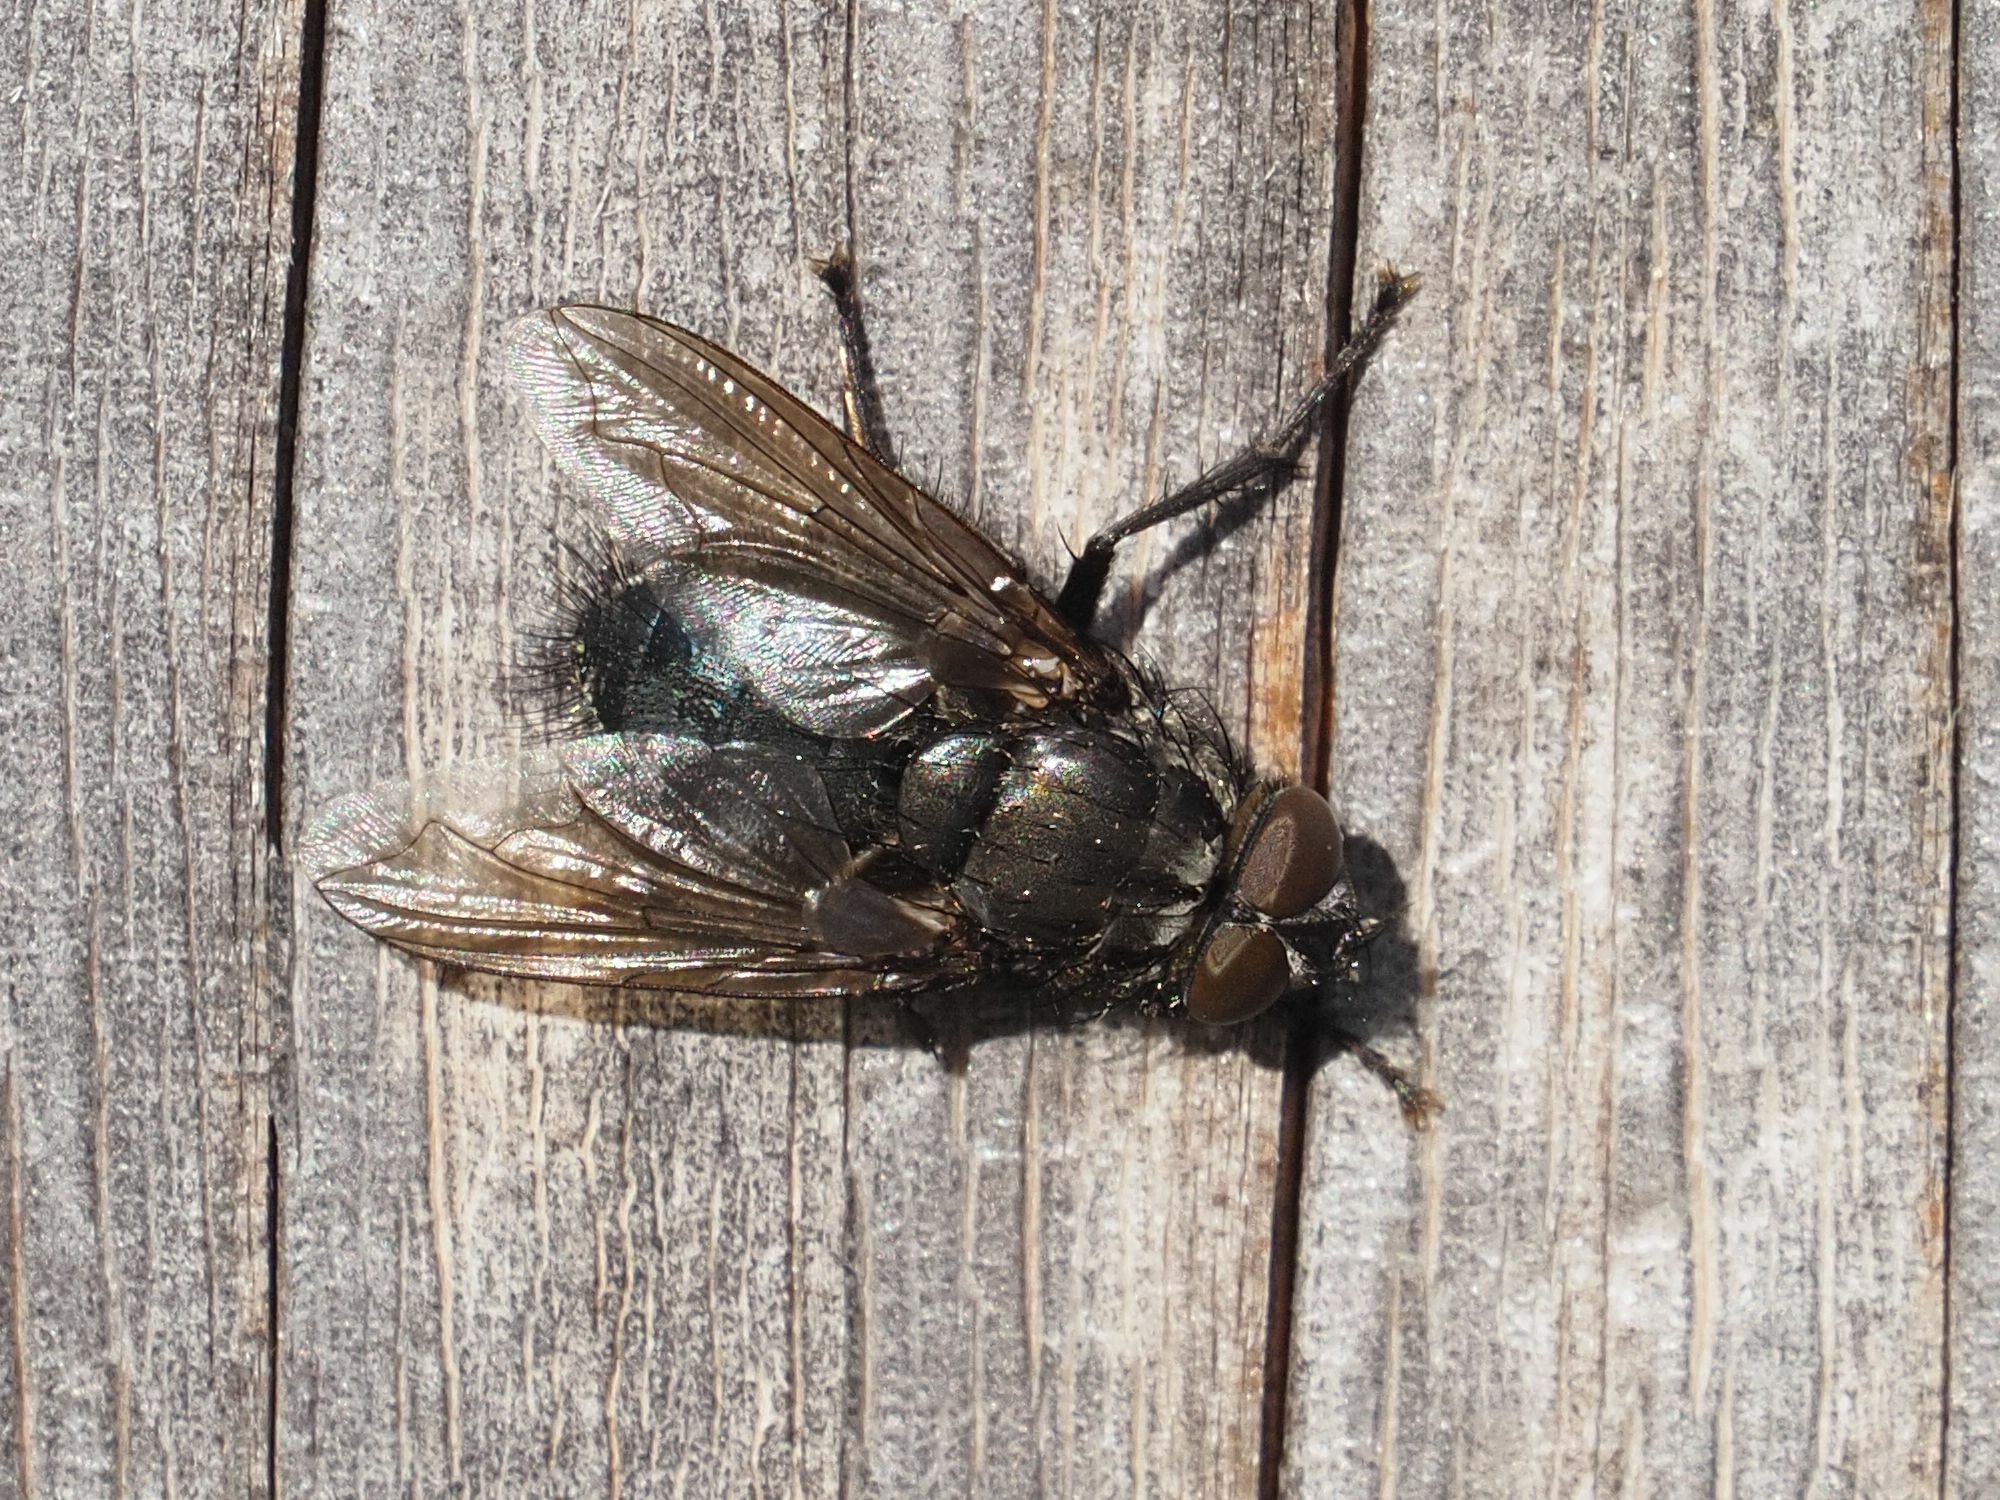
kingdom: Animalia
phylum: Arthropoda
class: Insecta
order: Diptera
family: Polleniidae
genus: Pollenia
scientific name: Pollenia vagabunda
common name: Vagabund cluster fly
